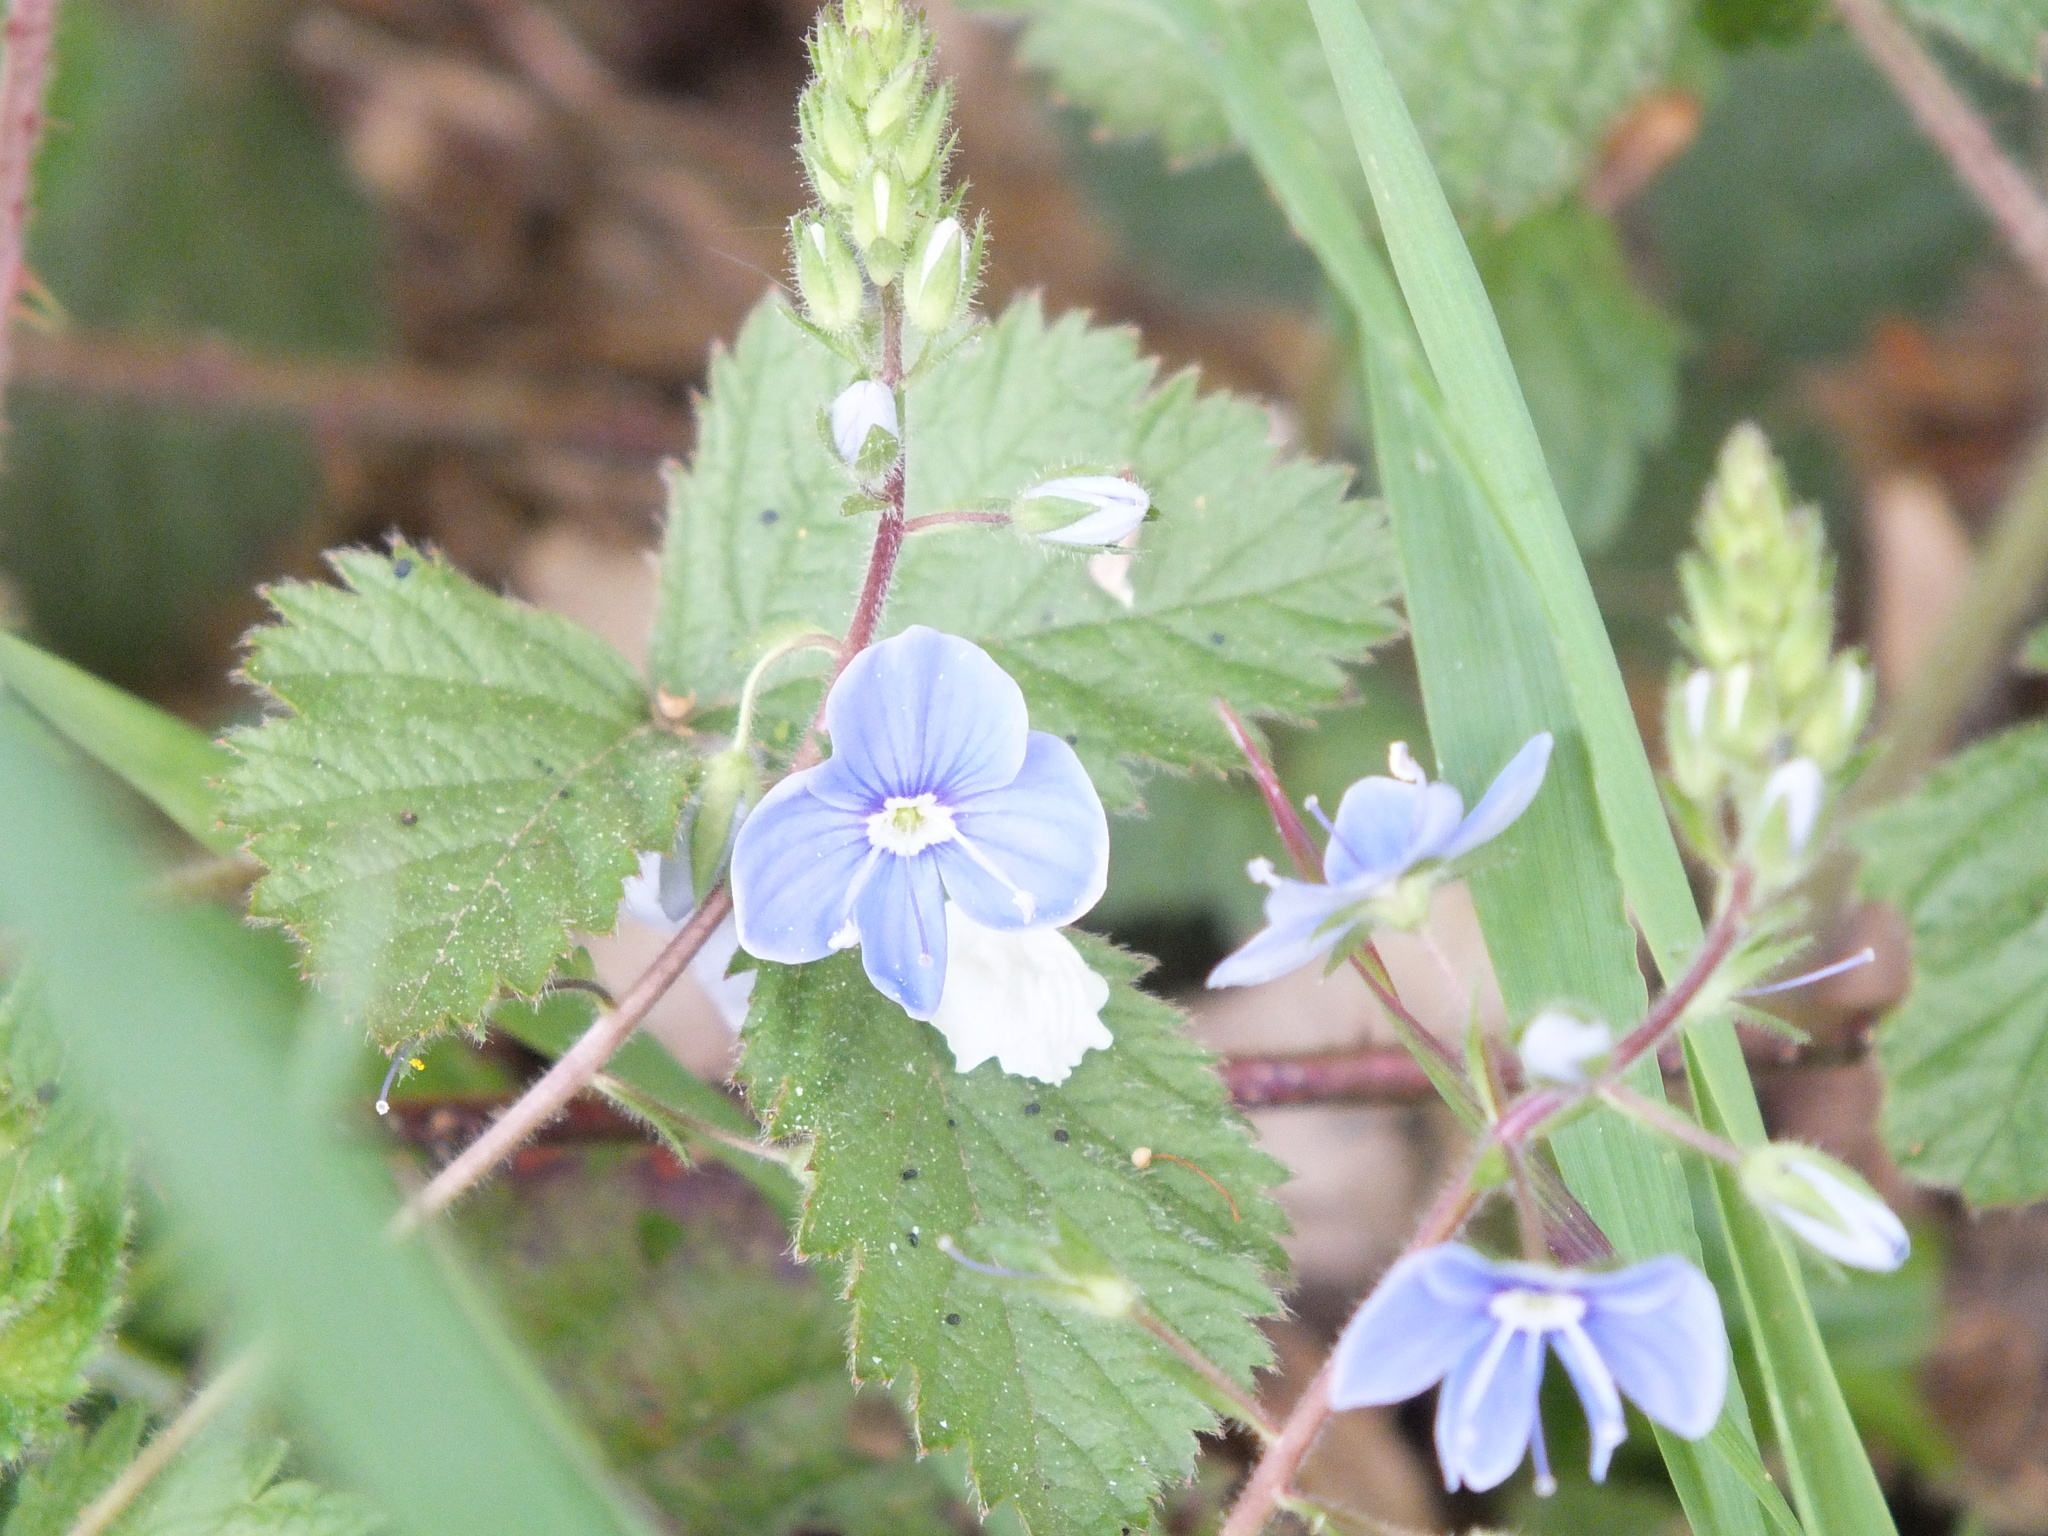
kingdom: Plantae
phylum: Tracheophyta
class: Magnoliopsida
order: Lamiales
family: Plantaginaceae
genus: Veronica
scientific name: Veronica chamaedrys
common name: Germander speedwell
